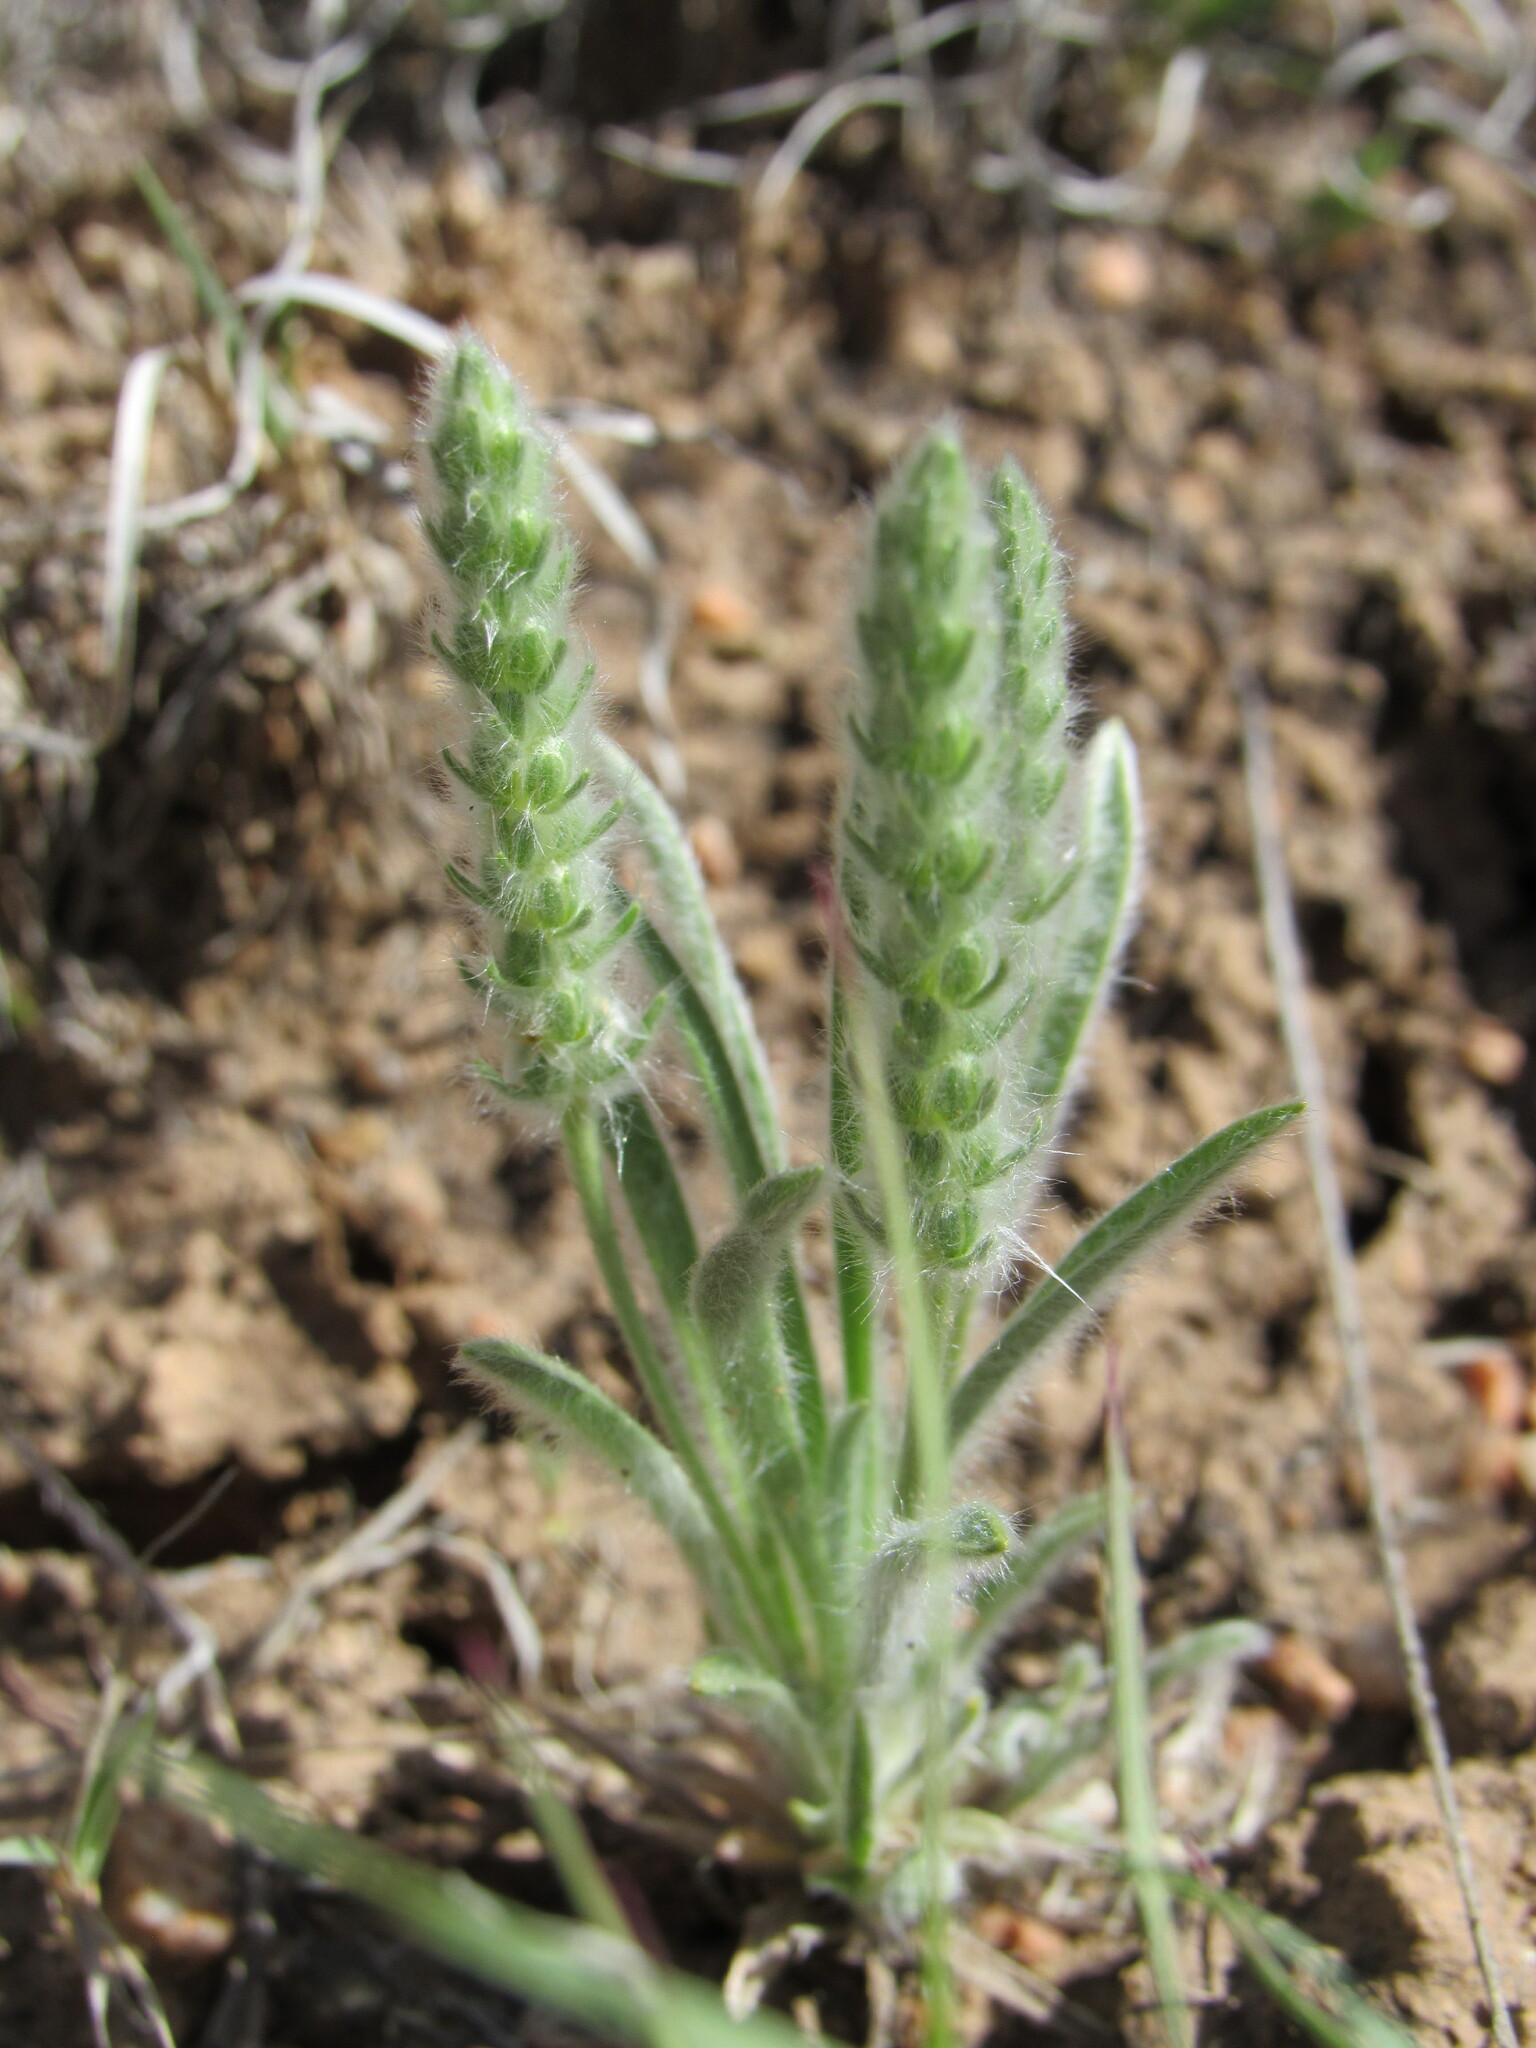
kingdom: Plantae
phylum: Tracheophyta
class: Magnoliopsida
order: Lamiales
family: Plantaginaceae
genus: Plantago
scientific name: Plantago patagonica
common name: Patagonia indian-wheat
